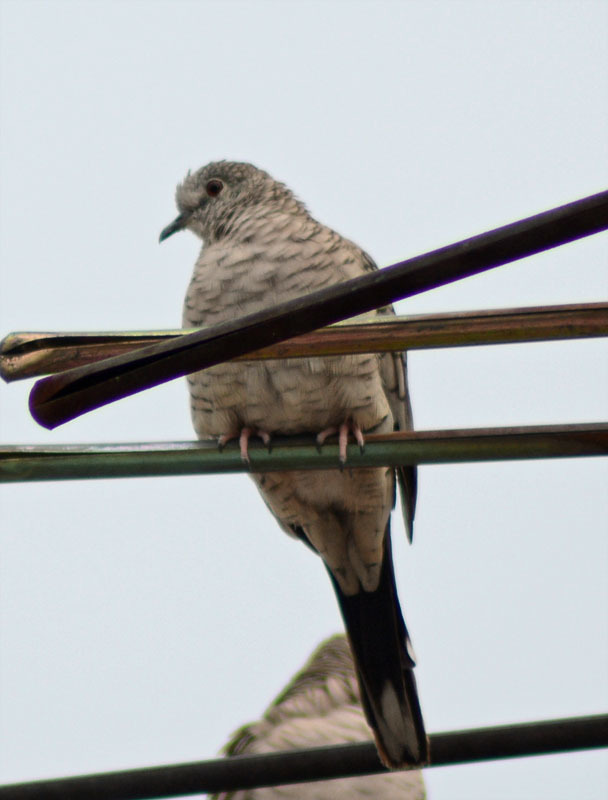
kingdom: Animalia
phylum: Chordata
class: Aves
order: Columbiformes
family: Columbidae
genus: Columbina
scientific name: Columbina inca
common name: Inca dove
